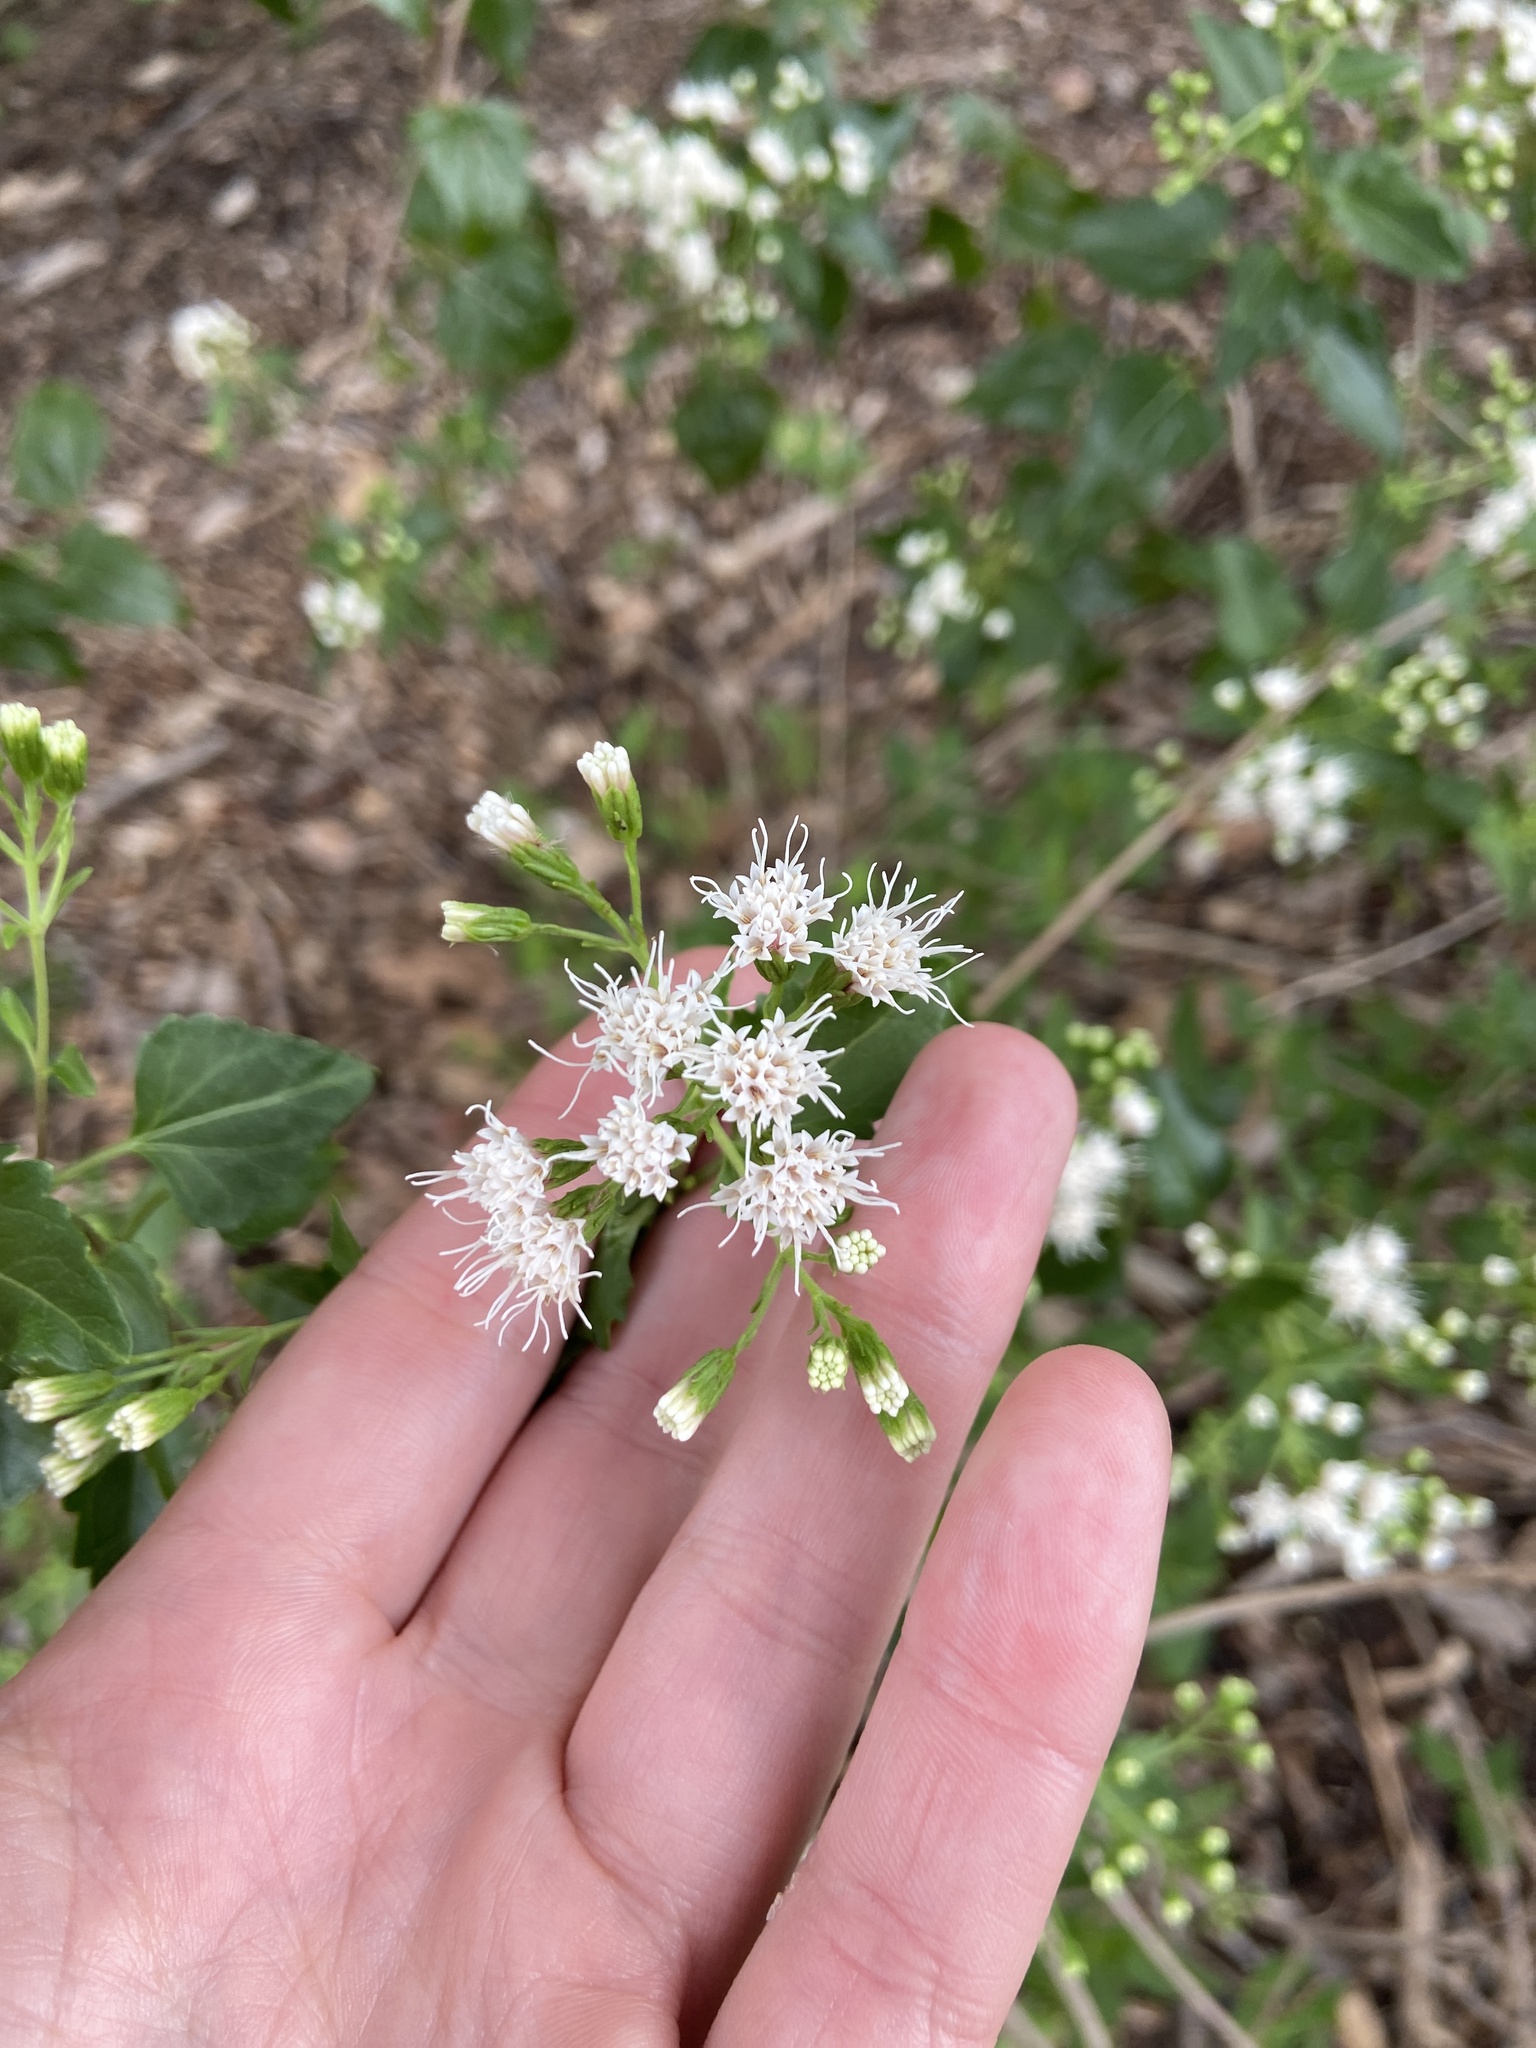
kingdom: Plantae
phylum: Tracheophyta
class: Magnoliopsida
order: Asterales
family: Asteraceae
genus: Ageratina
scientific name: Ageratina havanensis
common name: Havana snakeroot
